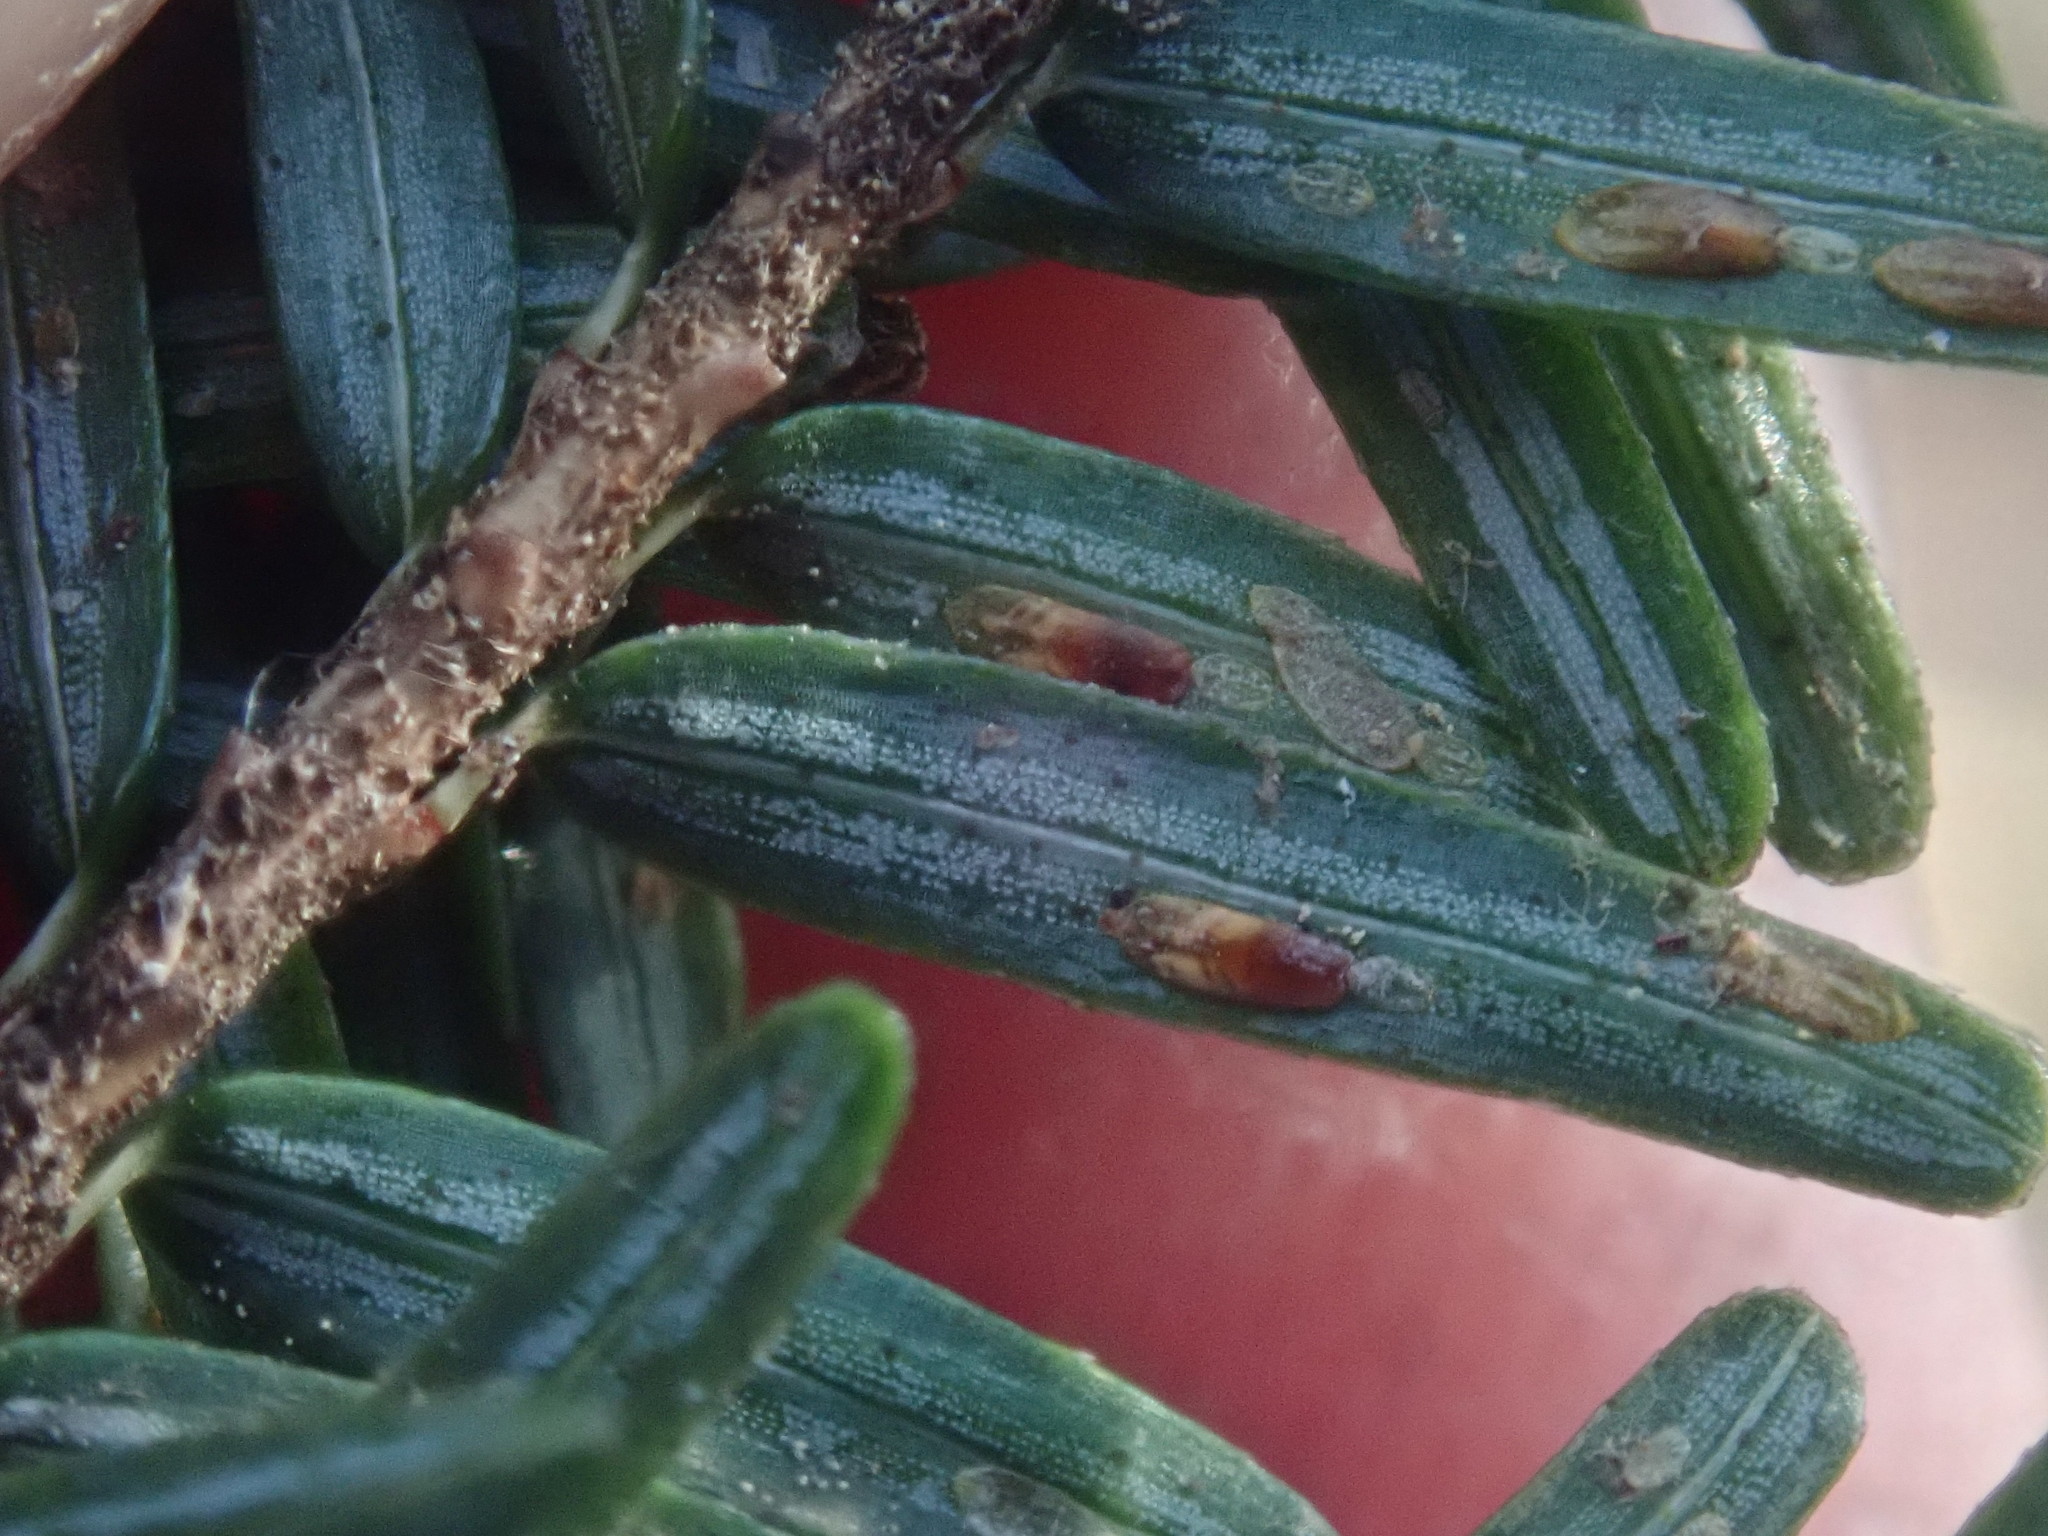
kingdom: Animalia
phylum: Arthropoda
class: Insecta
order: Hemiptera
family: Diaspididae
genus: Fiorinia
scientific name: Fiorinia externa
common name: Elongate hemlock scale
